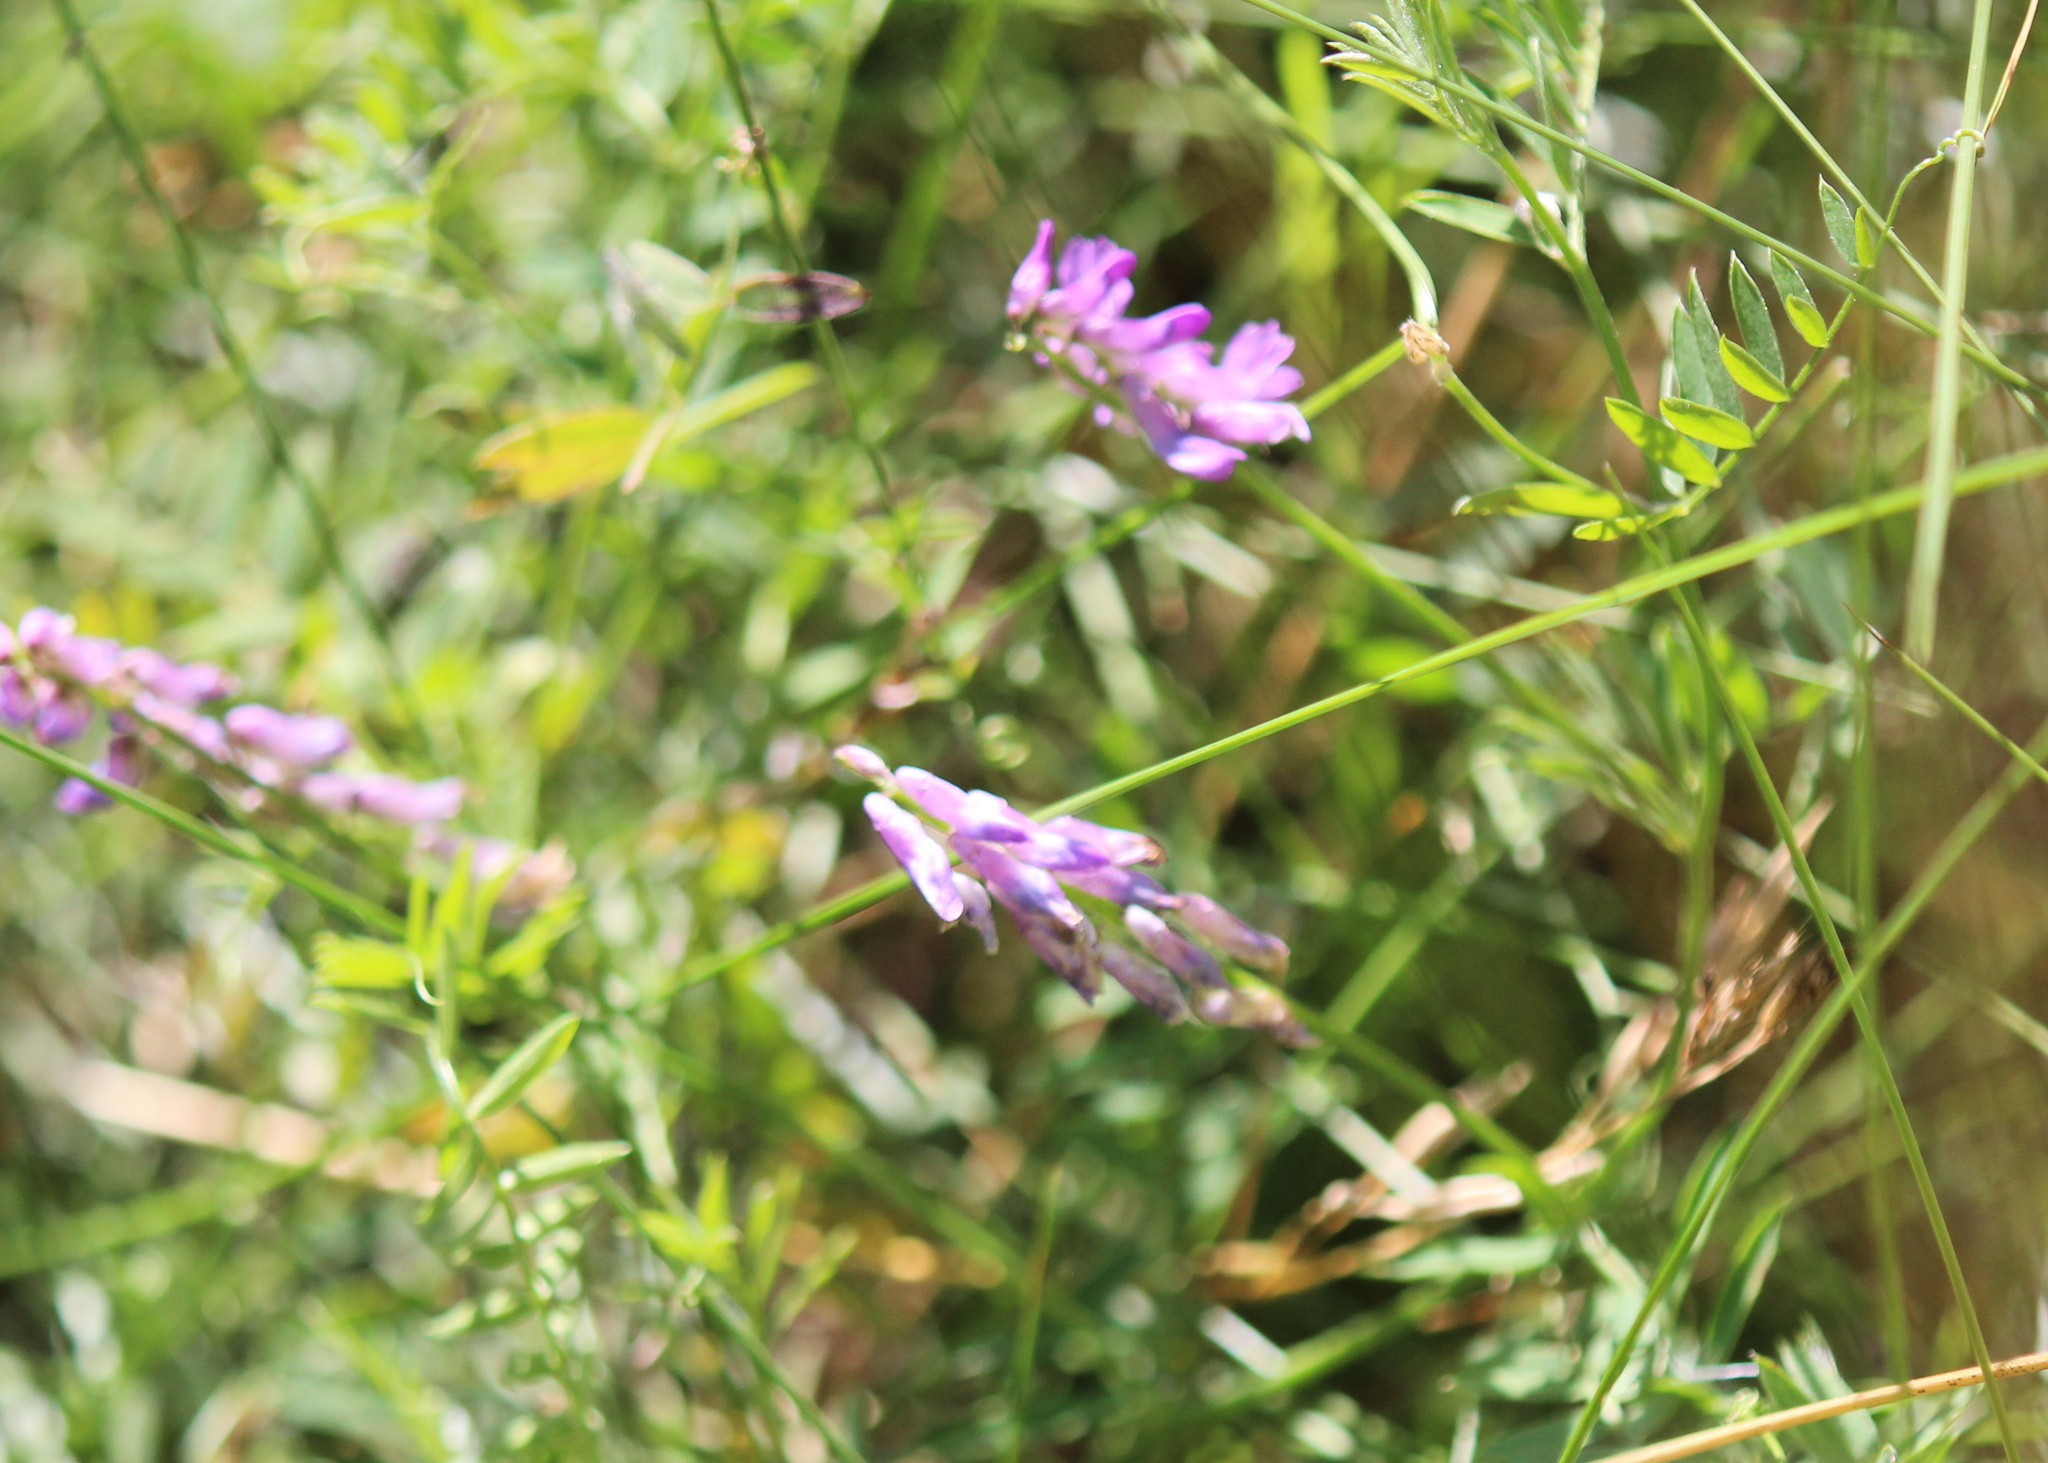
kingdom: Plantae
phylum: Tracheophyta
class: Magnoliopsida
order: Fabales
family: Fabaceae
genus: Vicia
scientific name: Vicia cracca
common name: Bird vetch
